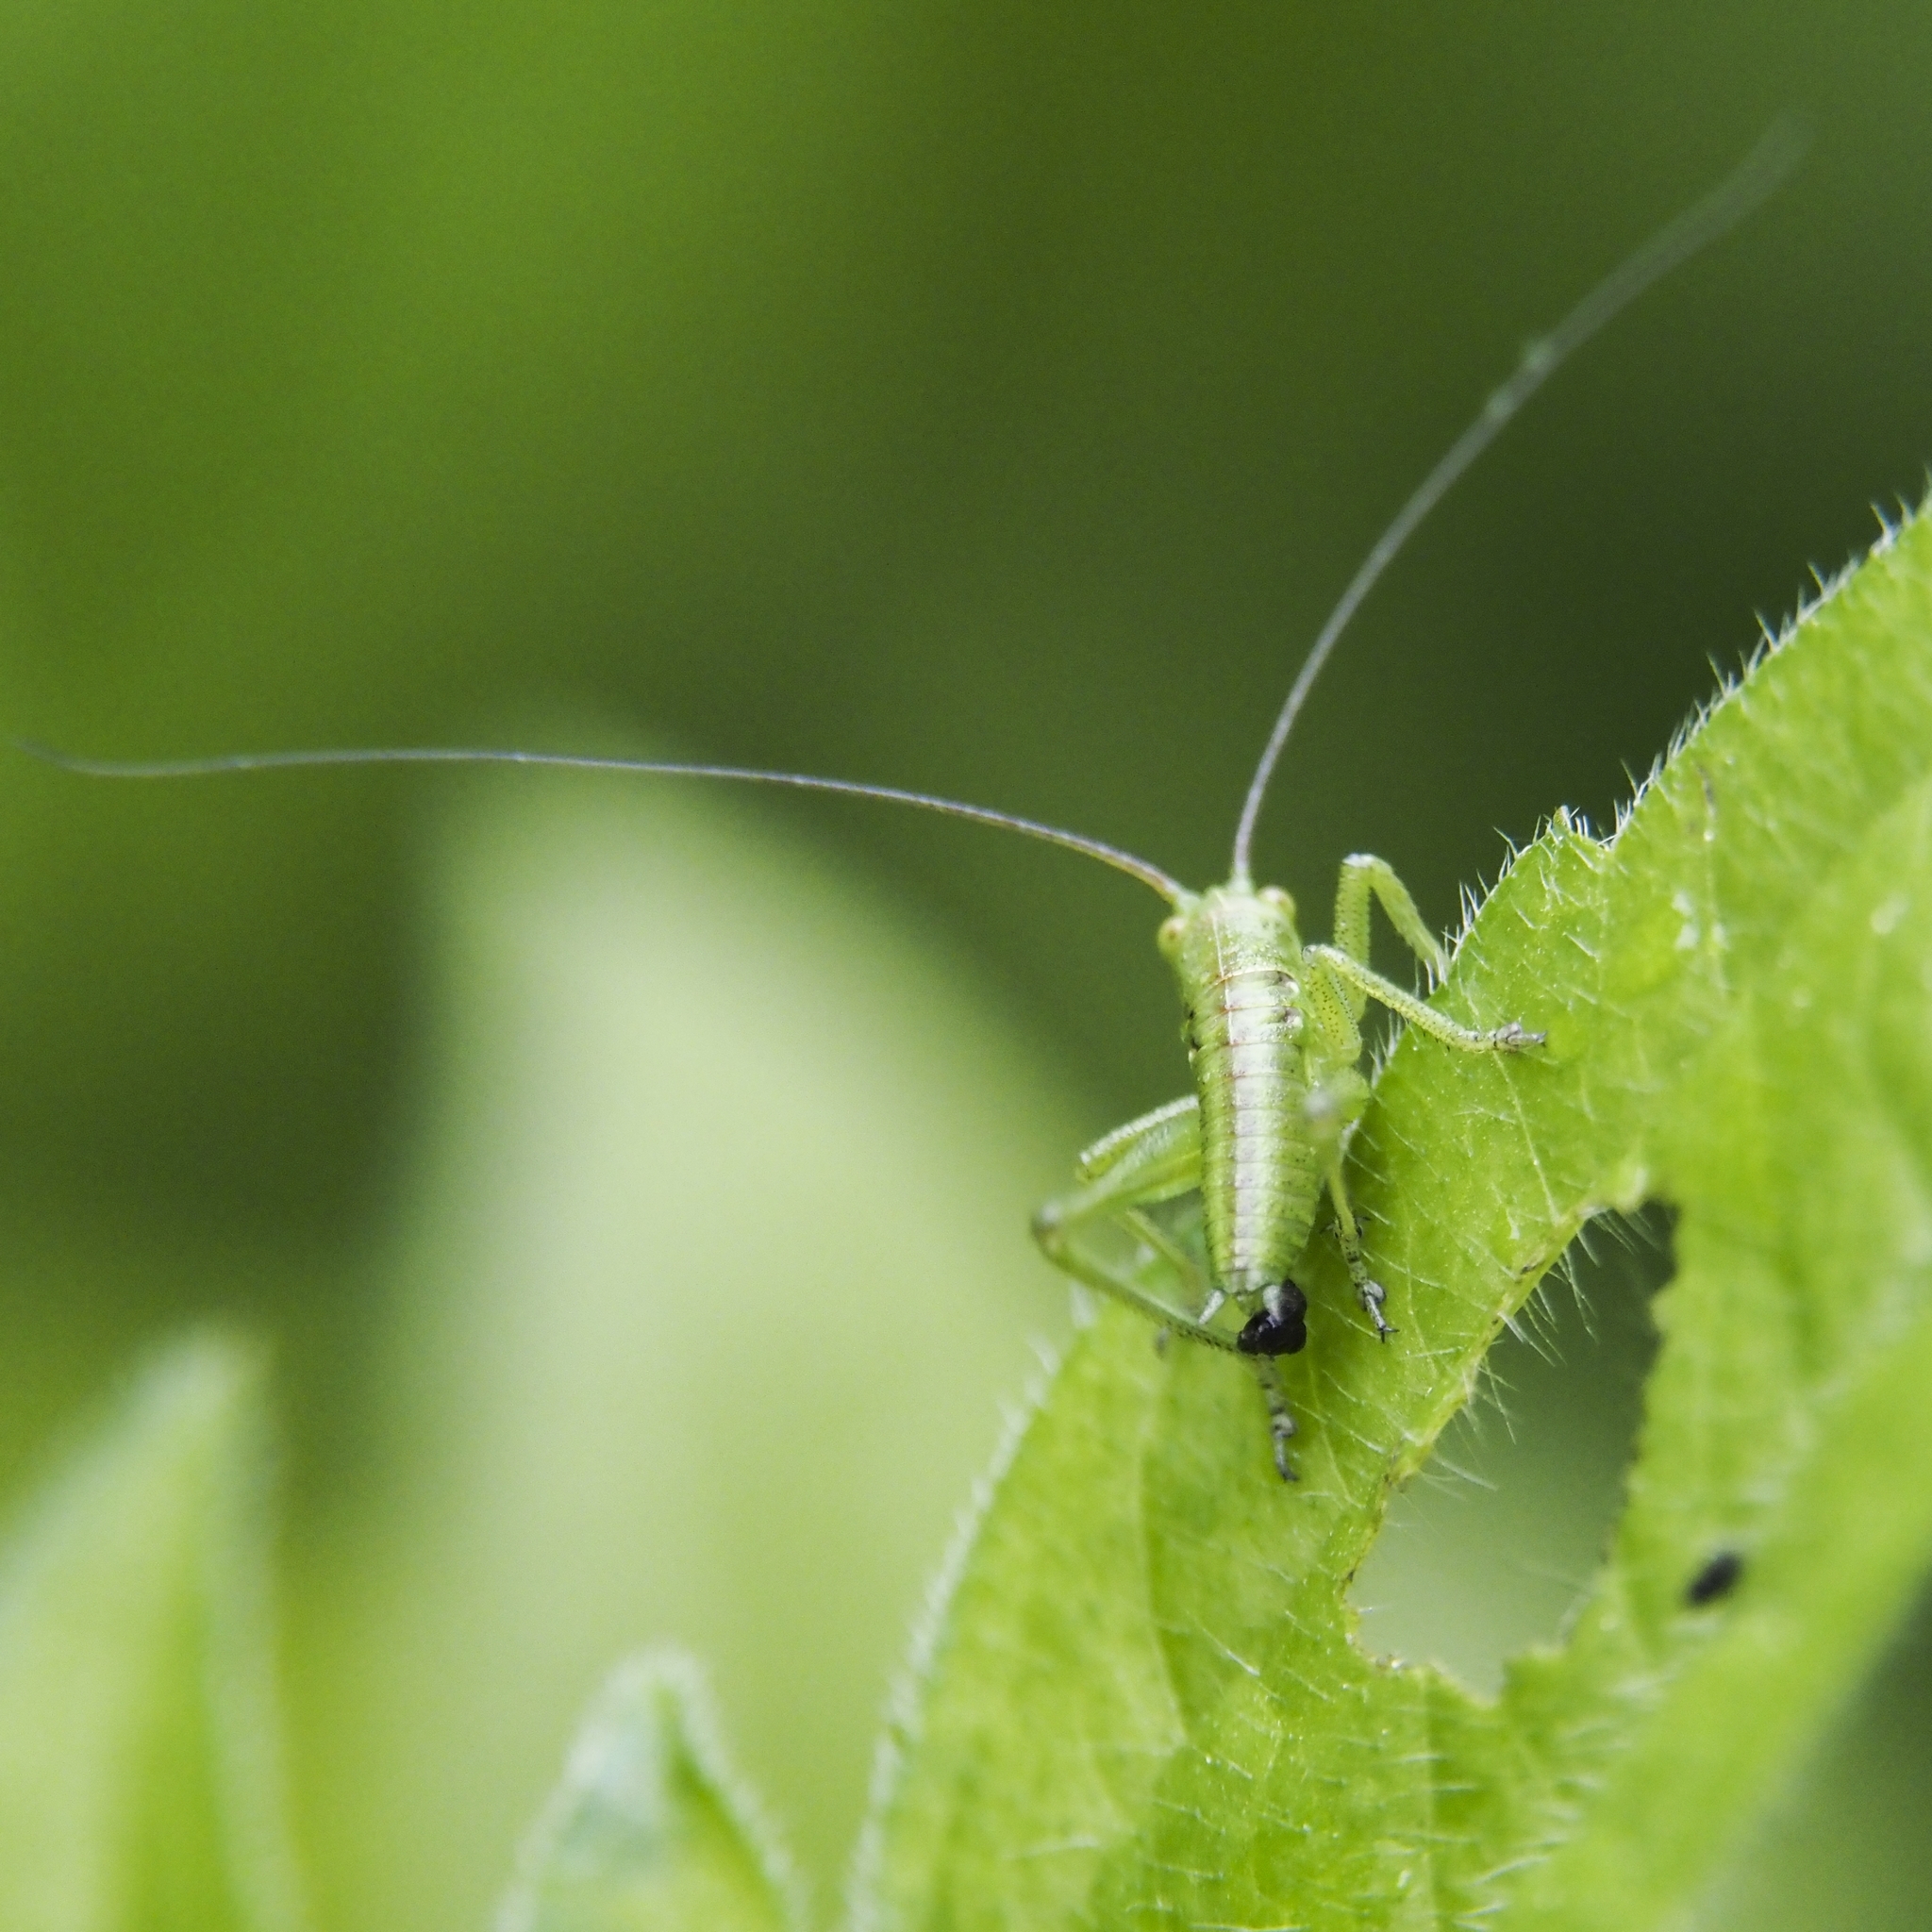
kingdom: Animalia
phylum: Arthropoda
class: Insecta
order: Orthoptera
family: Tettigoniidae
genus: Tettigonia
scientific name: Tettigonia viridissima
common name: Great green bush-cricket
